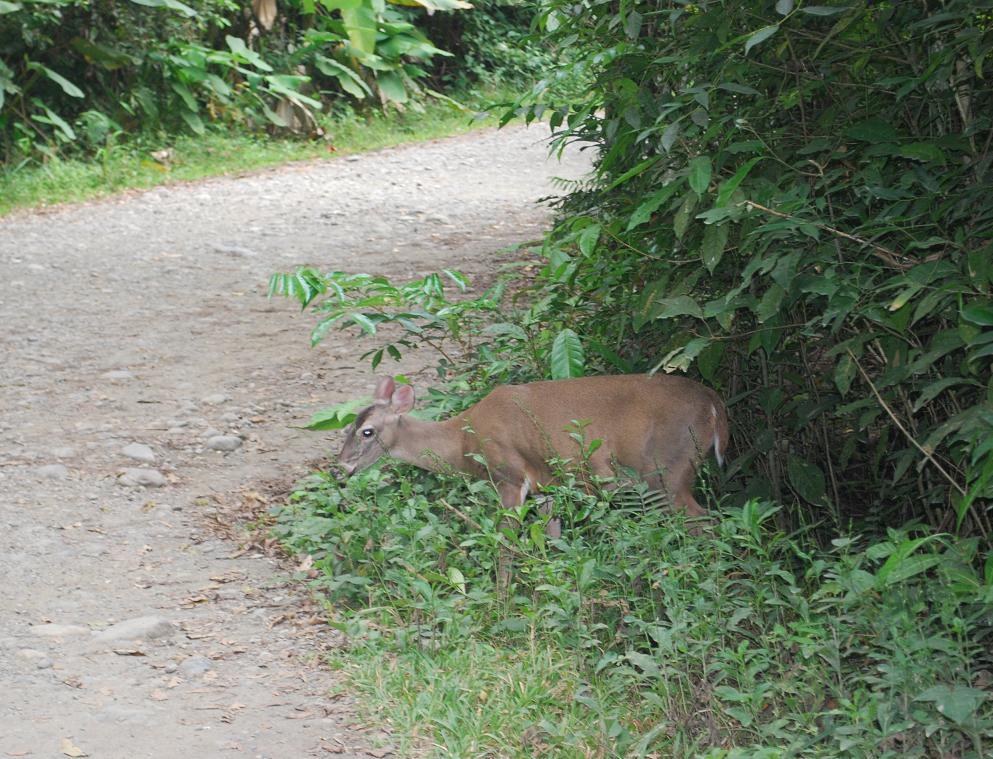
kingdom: Animalia
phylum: Chordata
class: Mammalia
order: Artiodactyla
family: Cervidae
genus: Odocoileus
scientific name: Odocoileus virginianus
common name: White-tailed deer
